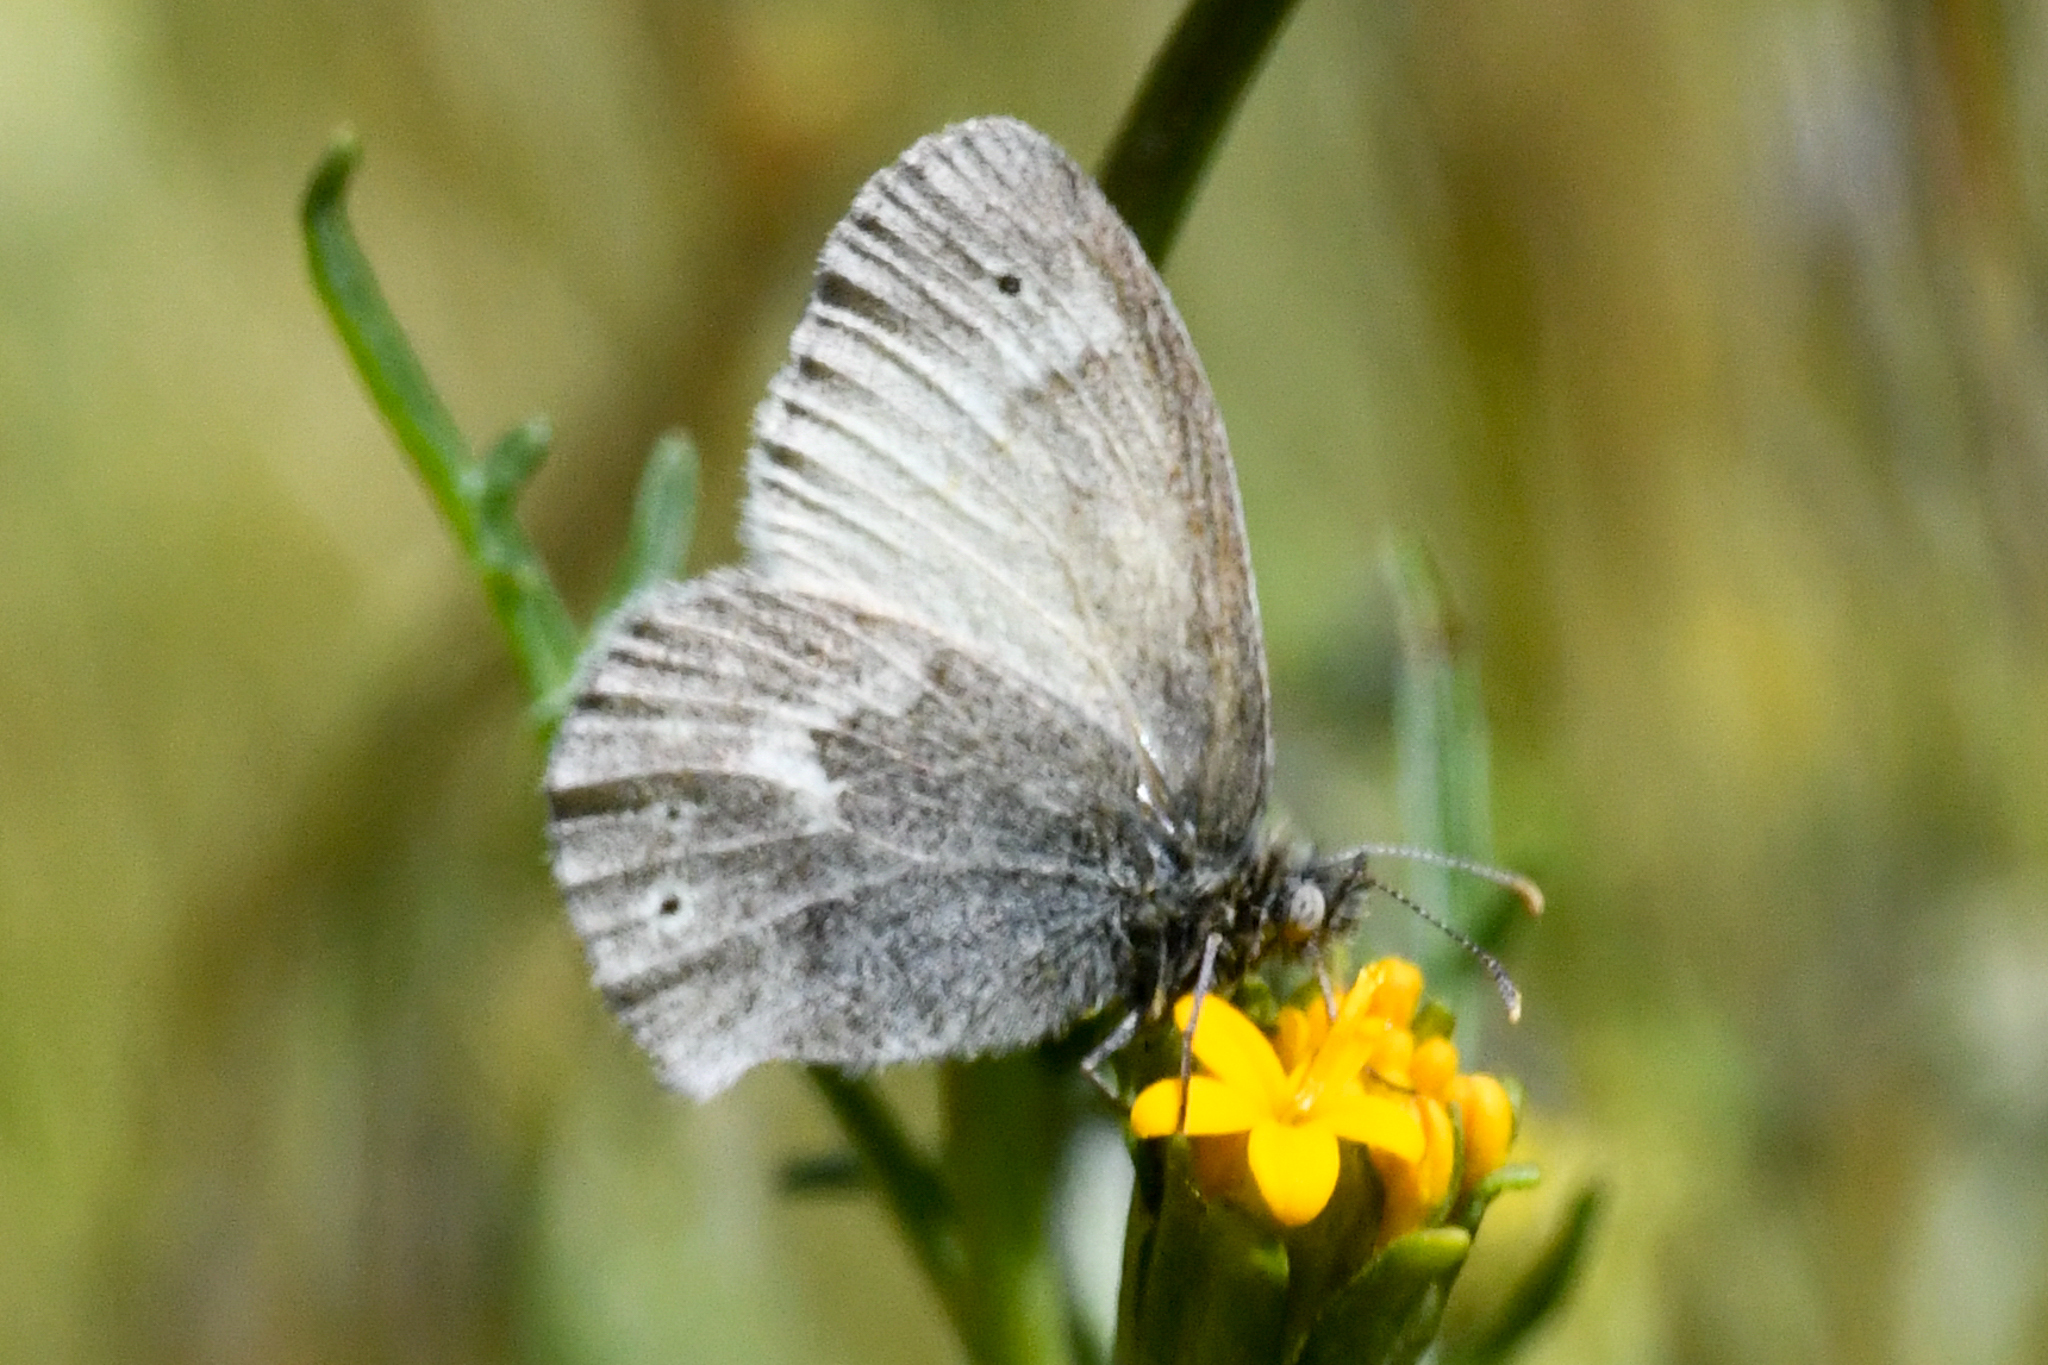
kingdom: Animalia
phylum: Arthropoda
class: Insecta
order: Lepidoptera
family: Nymphalidae
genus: Coenonympha
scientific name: Coenonympha california
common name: Common ringlet
